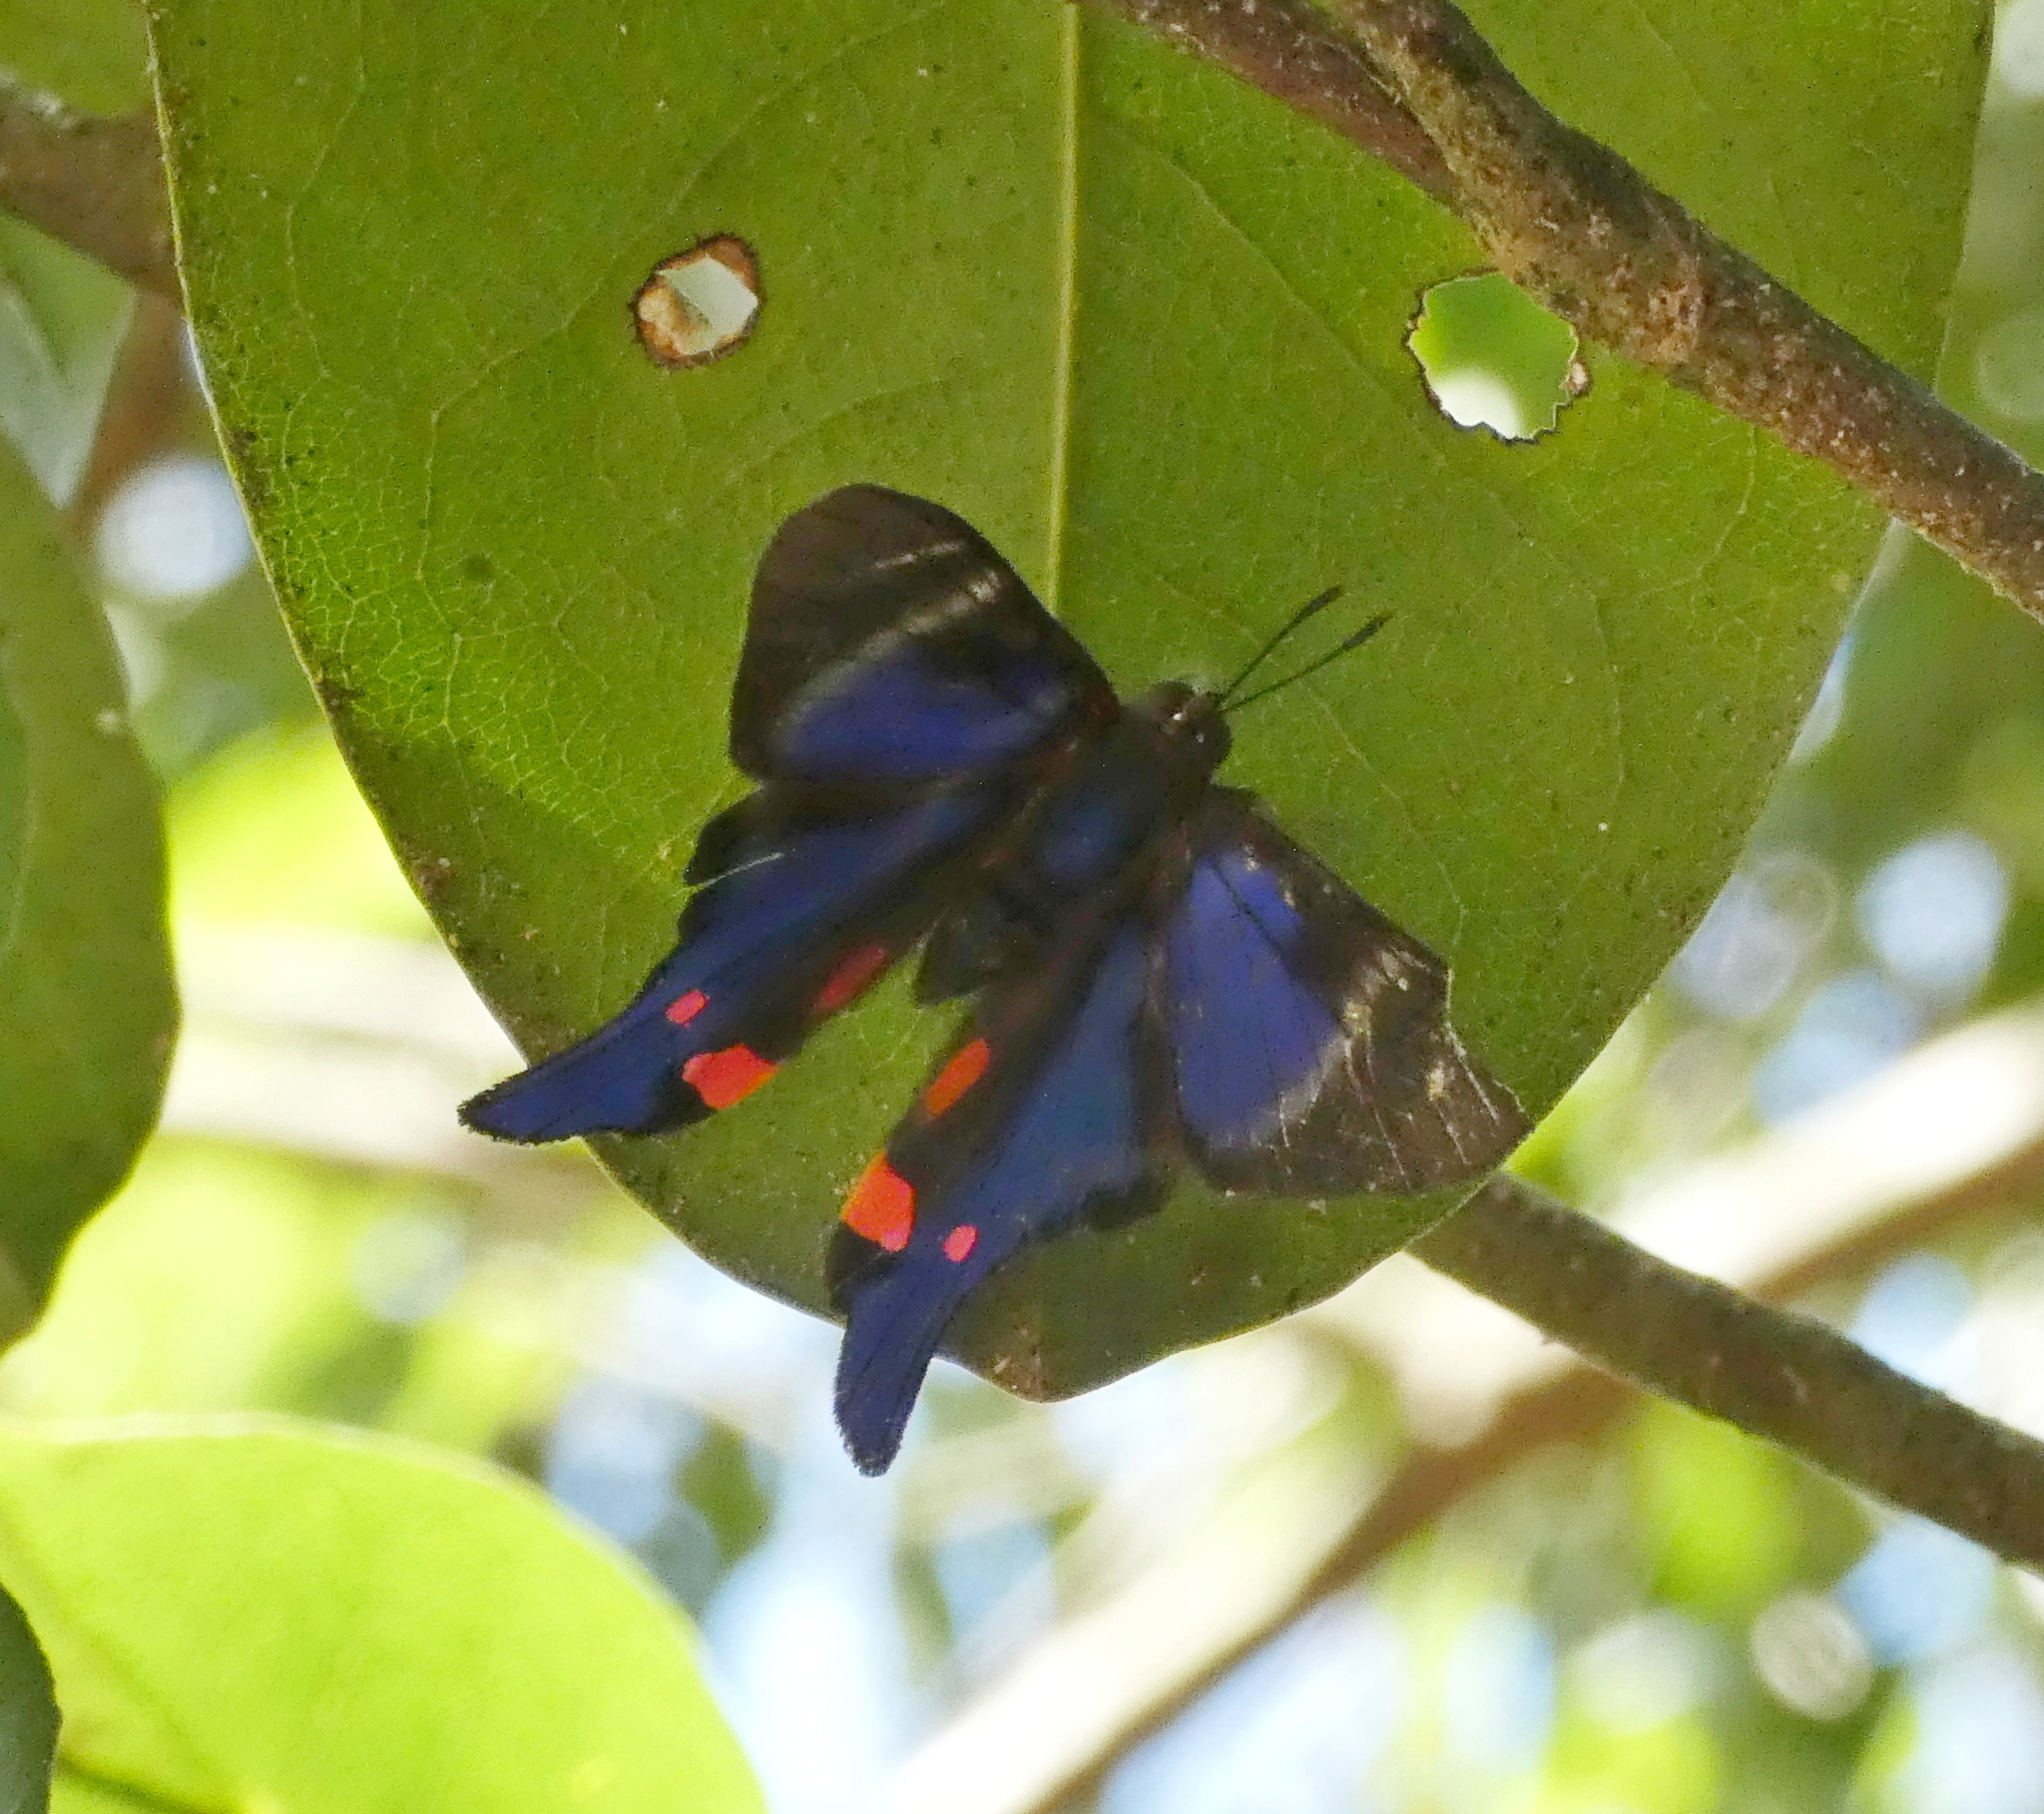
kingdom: Animalia
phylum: Arthropoda
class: Insecta
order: Lepidoptera
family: Riodinidae
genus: Rhetus
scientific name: Rhetus periander
